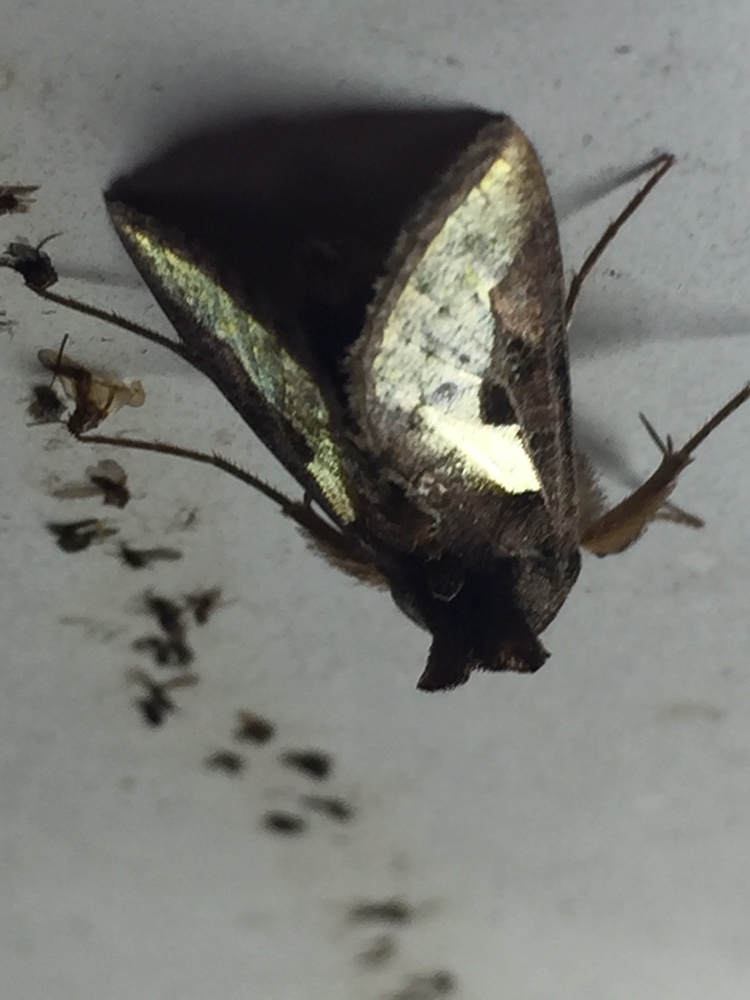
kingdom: Animalia
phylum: Arthropoda
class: Insecta
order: Lepidoptera
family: Noctuidae
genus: Thysanoplusia
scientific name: Thysanoplusia orichalcea
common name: Slender burnished brass, golden plusia
